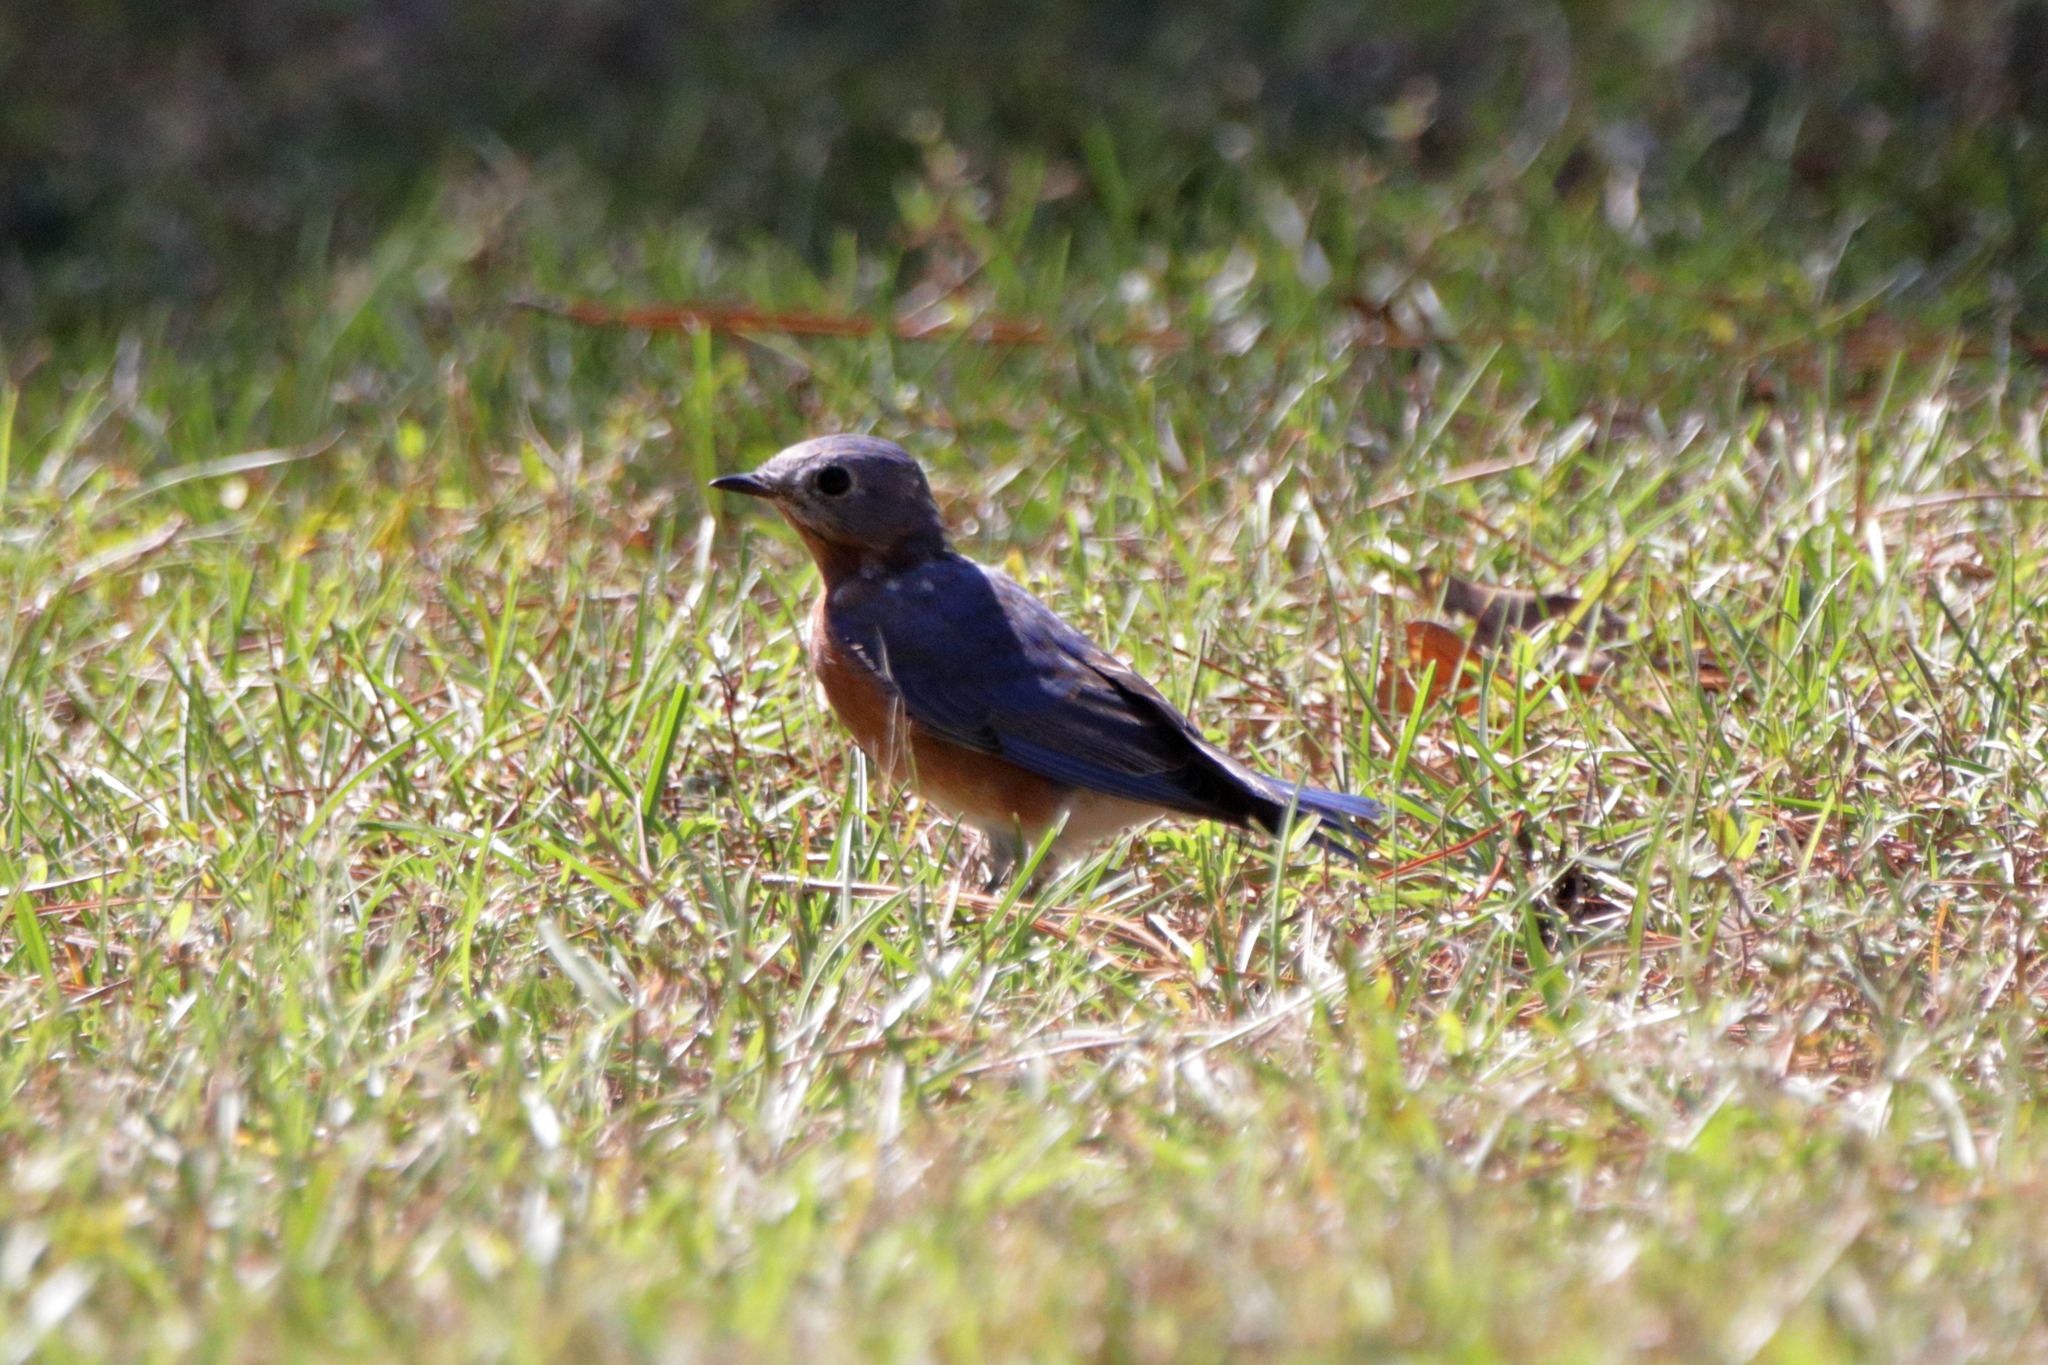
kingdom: Animalia
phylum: Chordata
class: Aves
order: Passeriformes
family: Turdidae
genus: Sialia
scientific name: Sialia sialis
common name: Eastern bluebird
